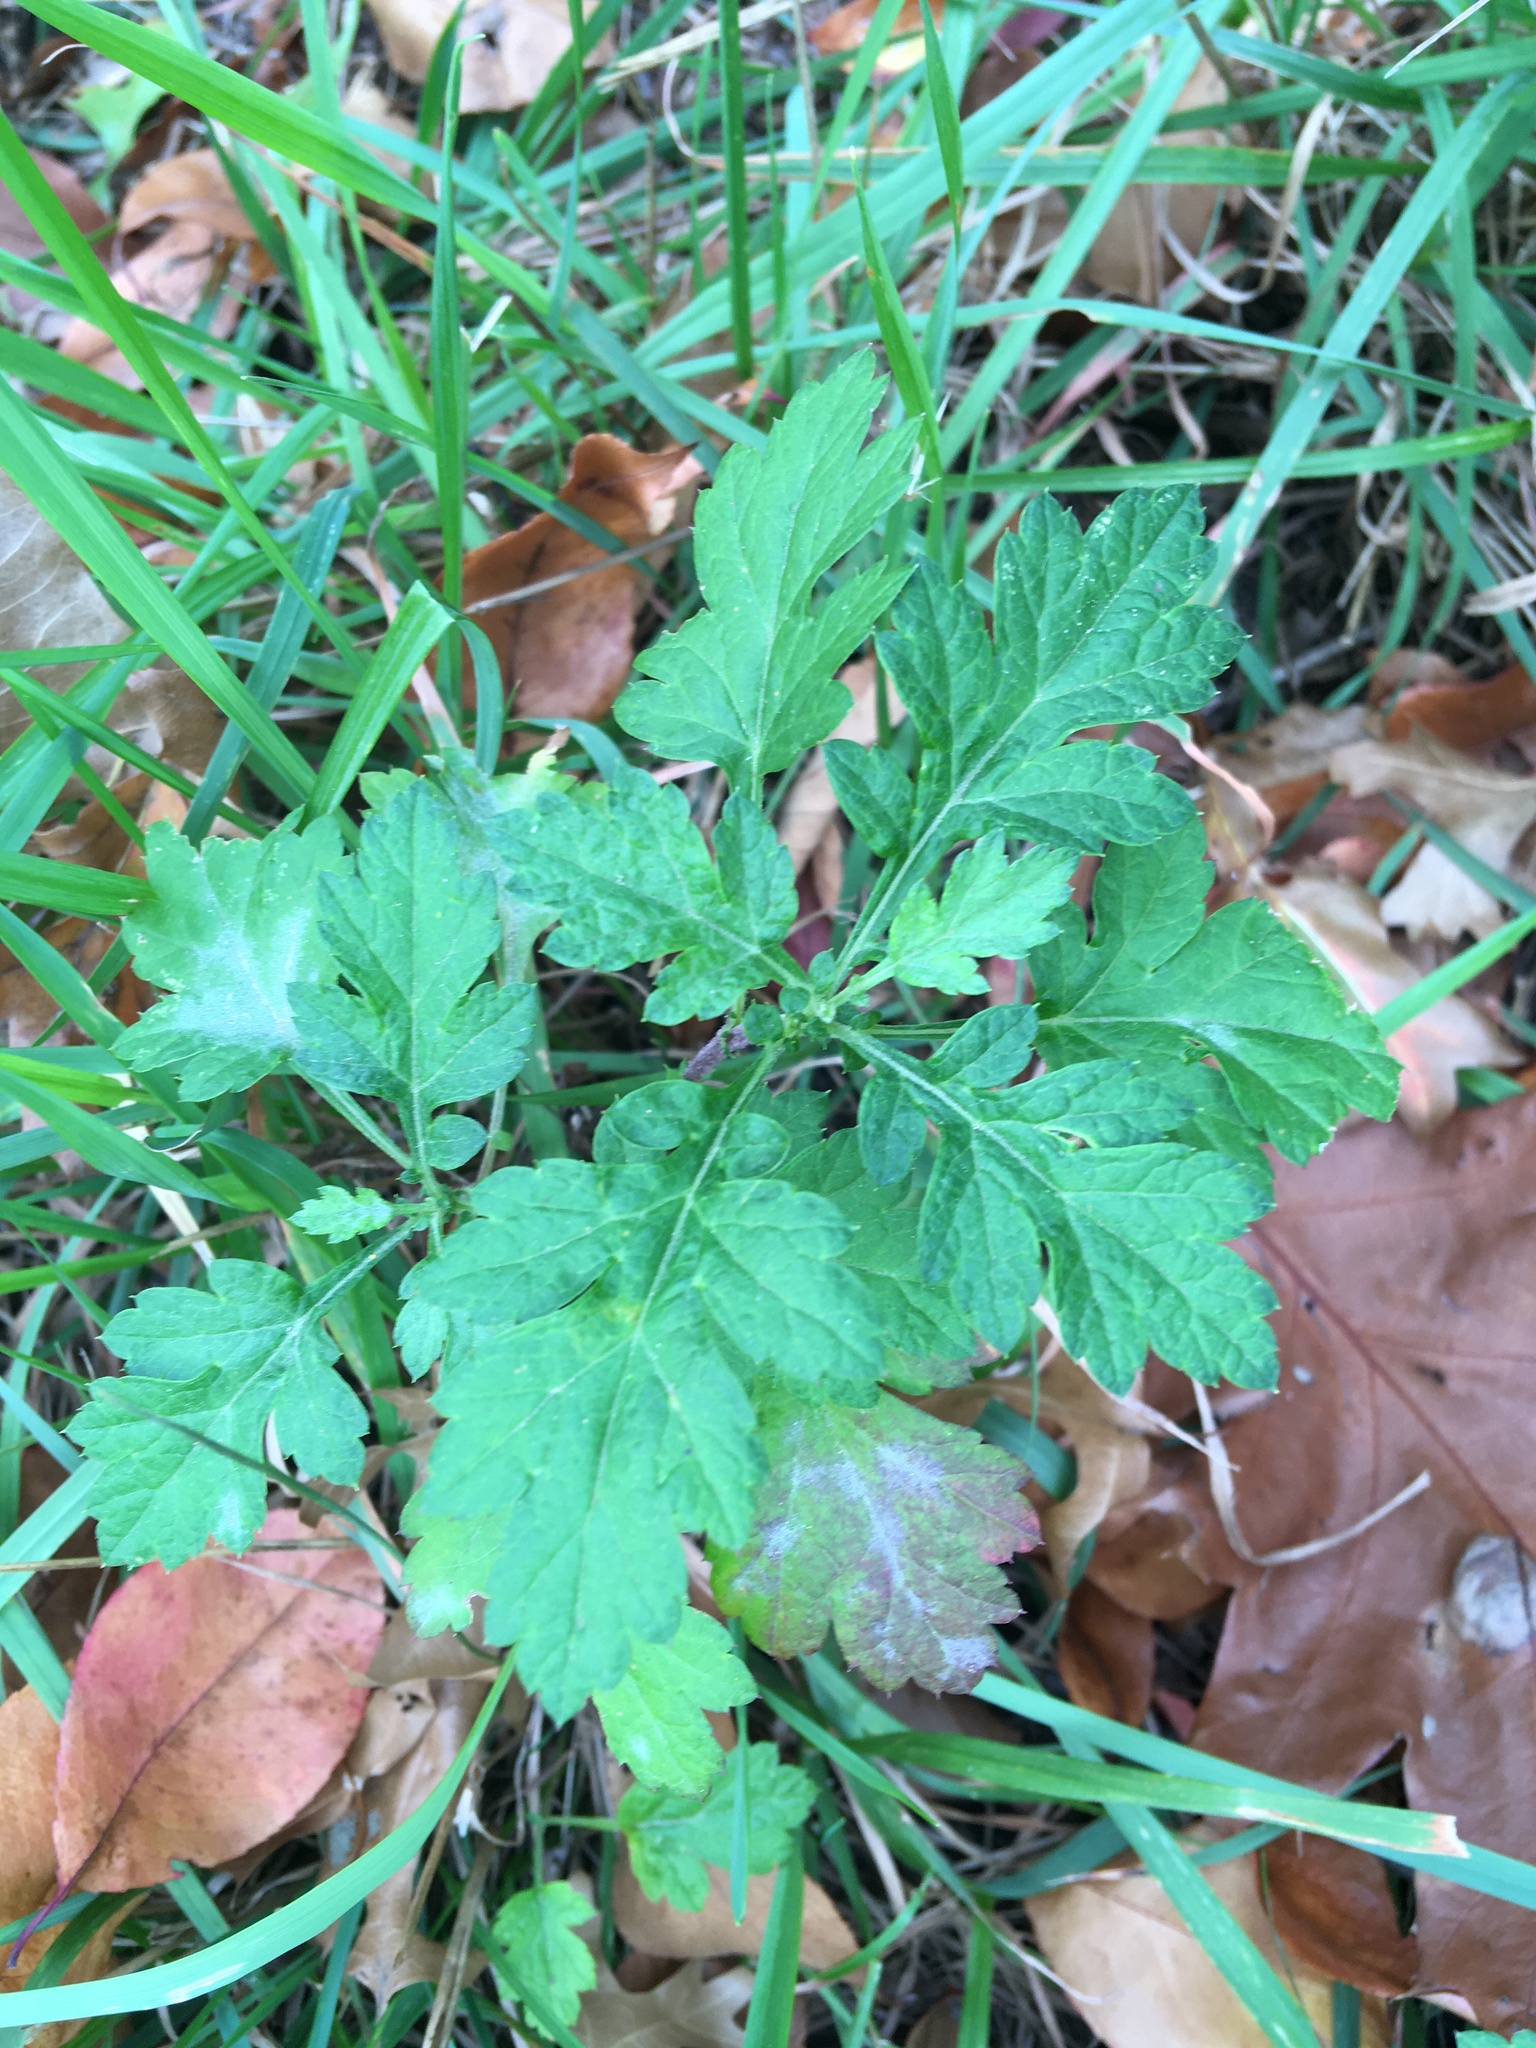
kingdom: Plantae
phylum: Tracheophyta
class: Magnoliopsida
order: Asterales
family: Asteraceae
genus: Artemisia
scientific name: Artemisia vulgaris
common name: Mugwort
